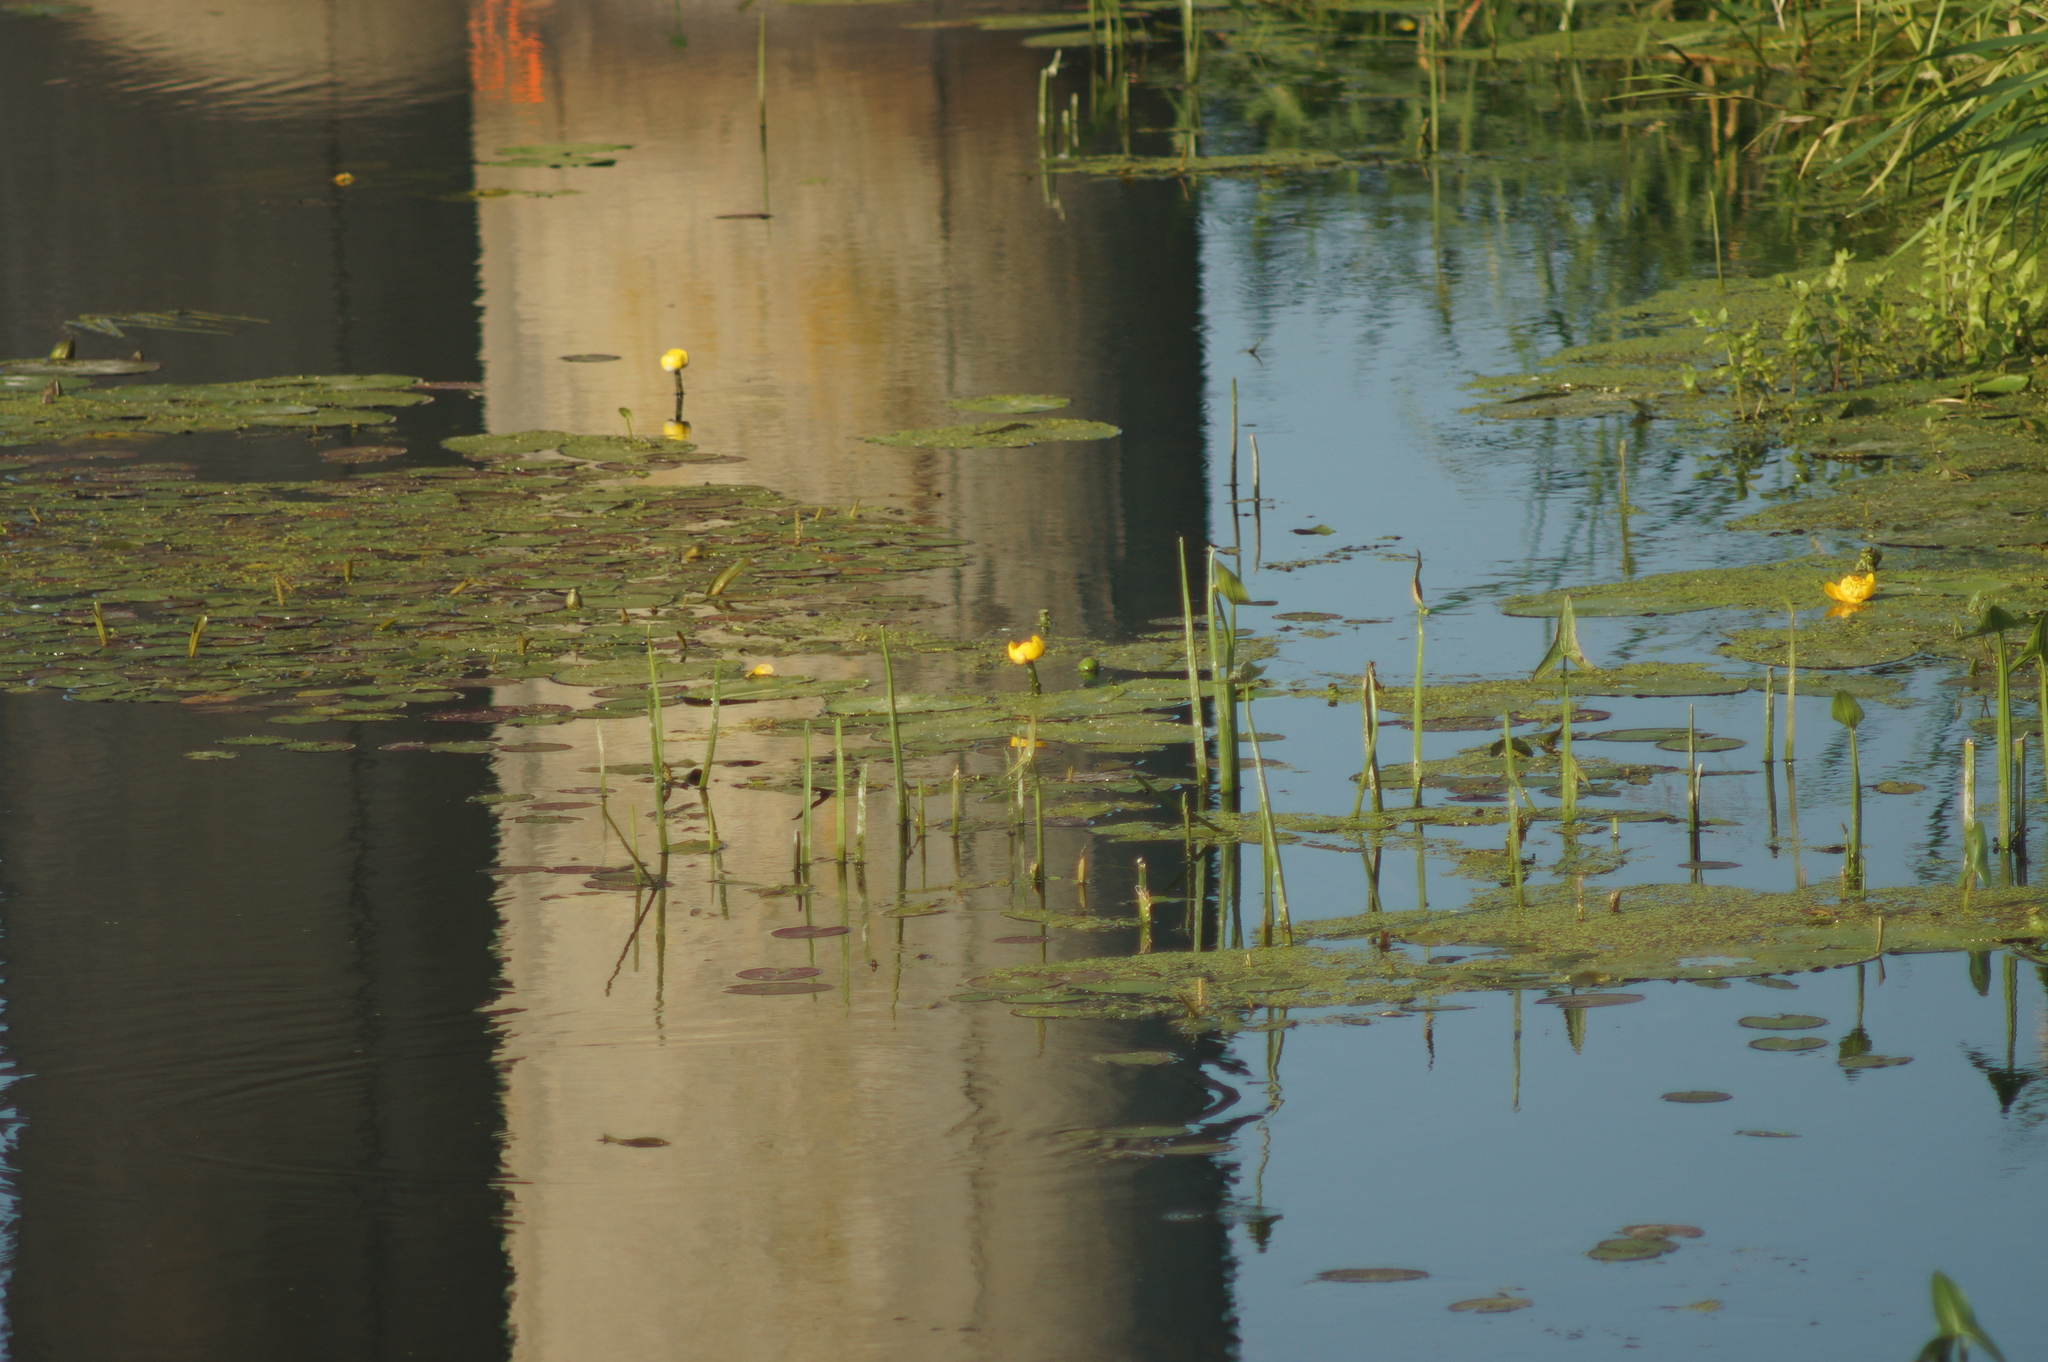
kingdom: Plantae
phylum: Tracheophyta
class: Magnoliopsida
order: Nymphaeales
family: Nymphaeaceae
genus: Nuphar
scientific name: Nuphar lutea
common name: Yellow water-lily
